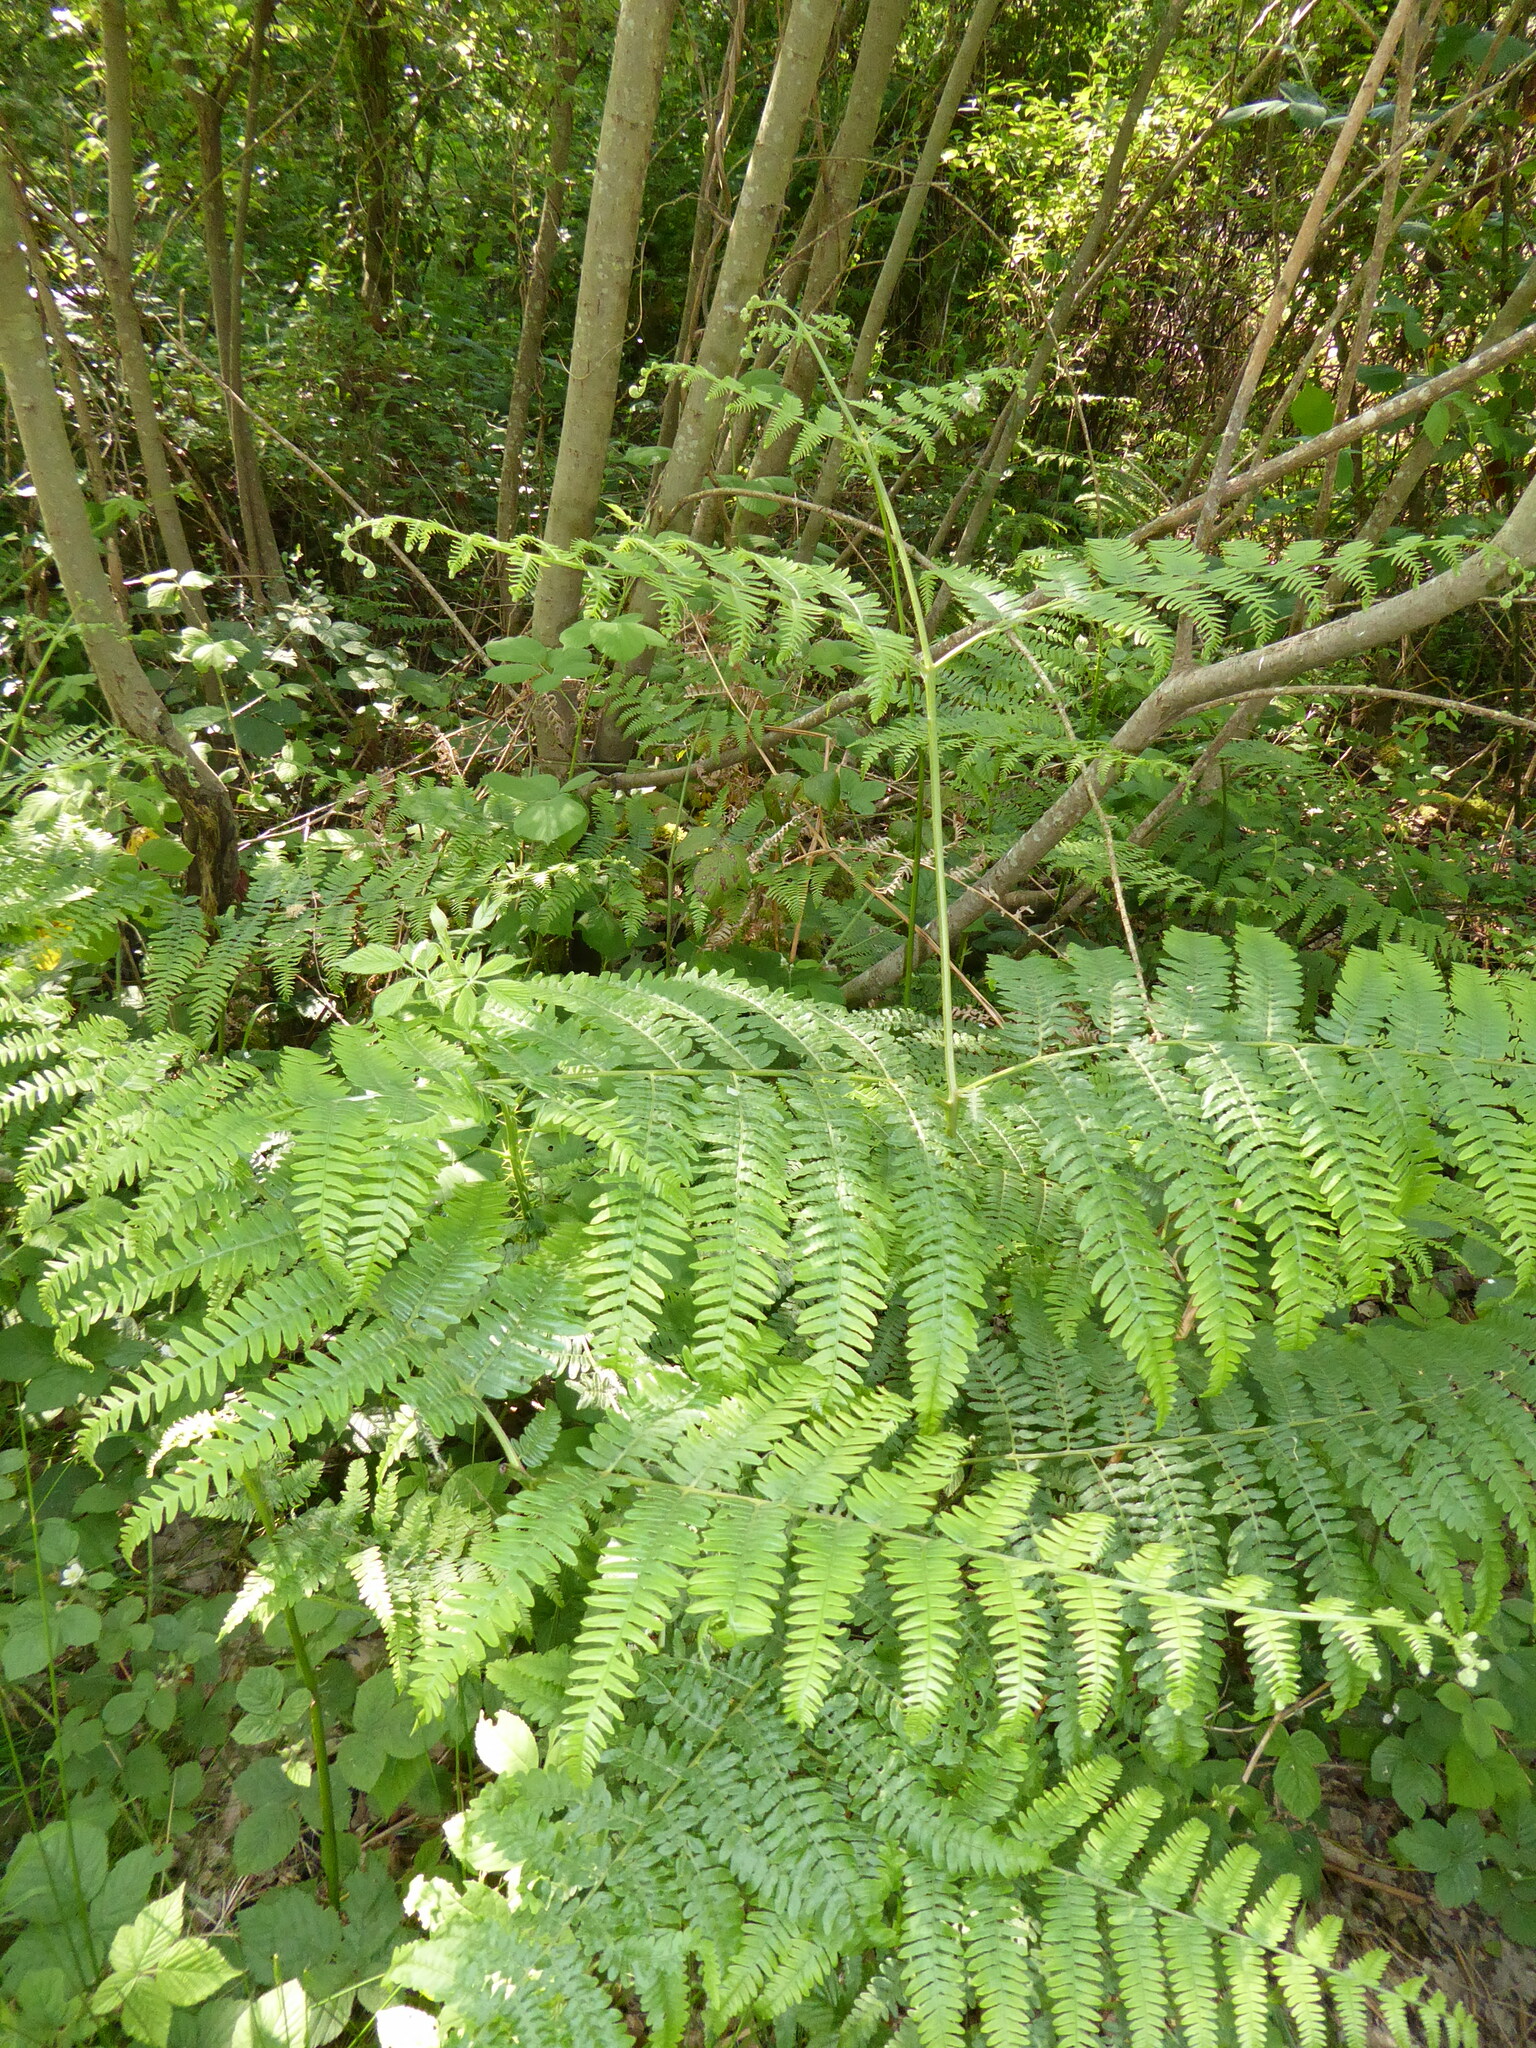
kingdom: Plantae
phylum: Tracheophyta
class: Polypodiopsida
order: Polypodiales
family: Dennstaedtiaceae
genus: Pteridium
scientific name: Pteridium aquilinum
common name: Bracken
